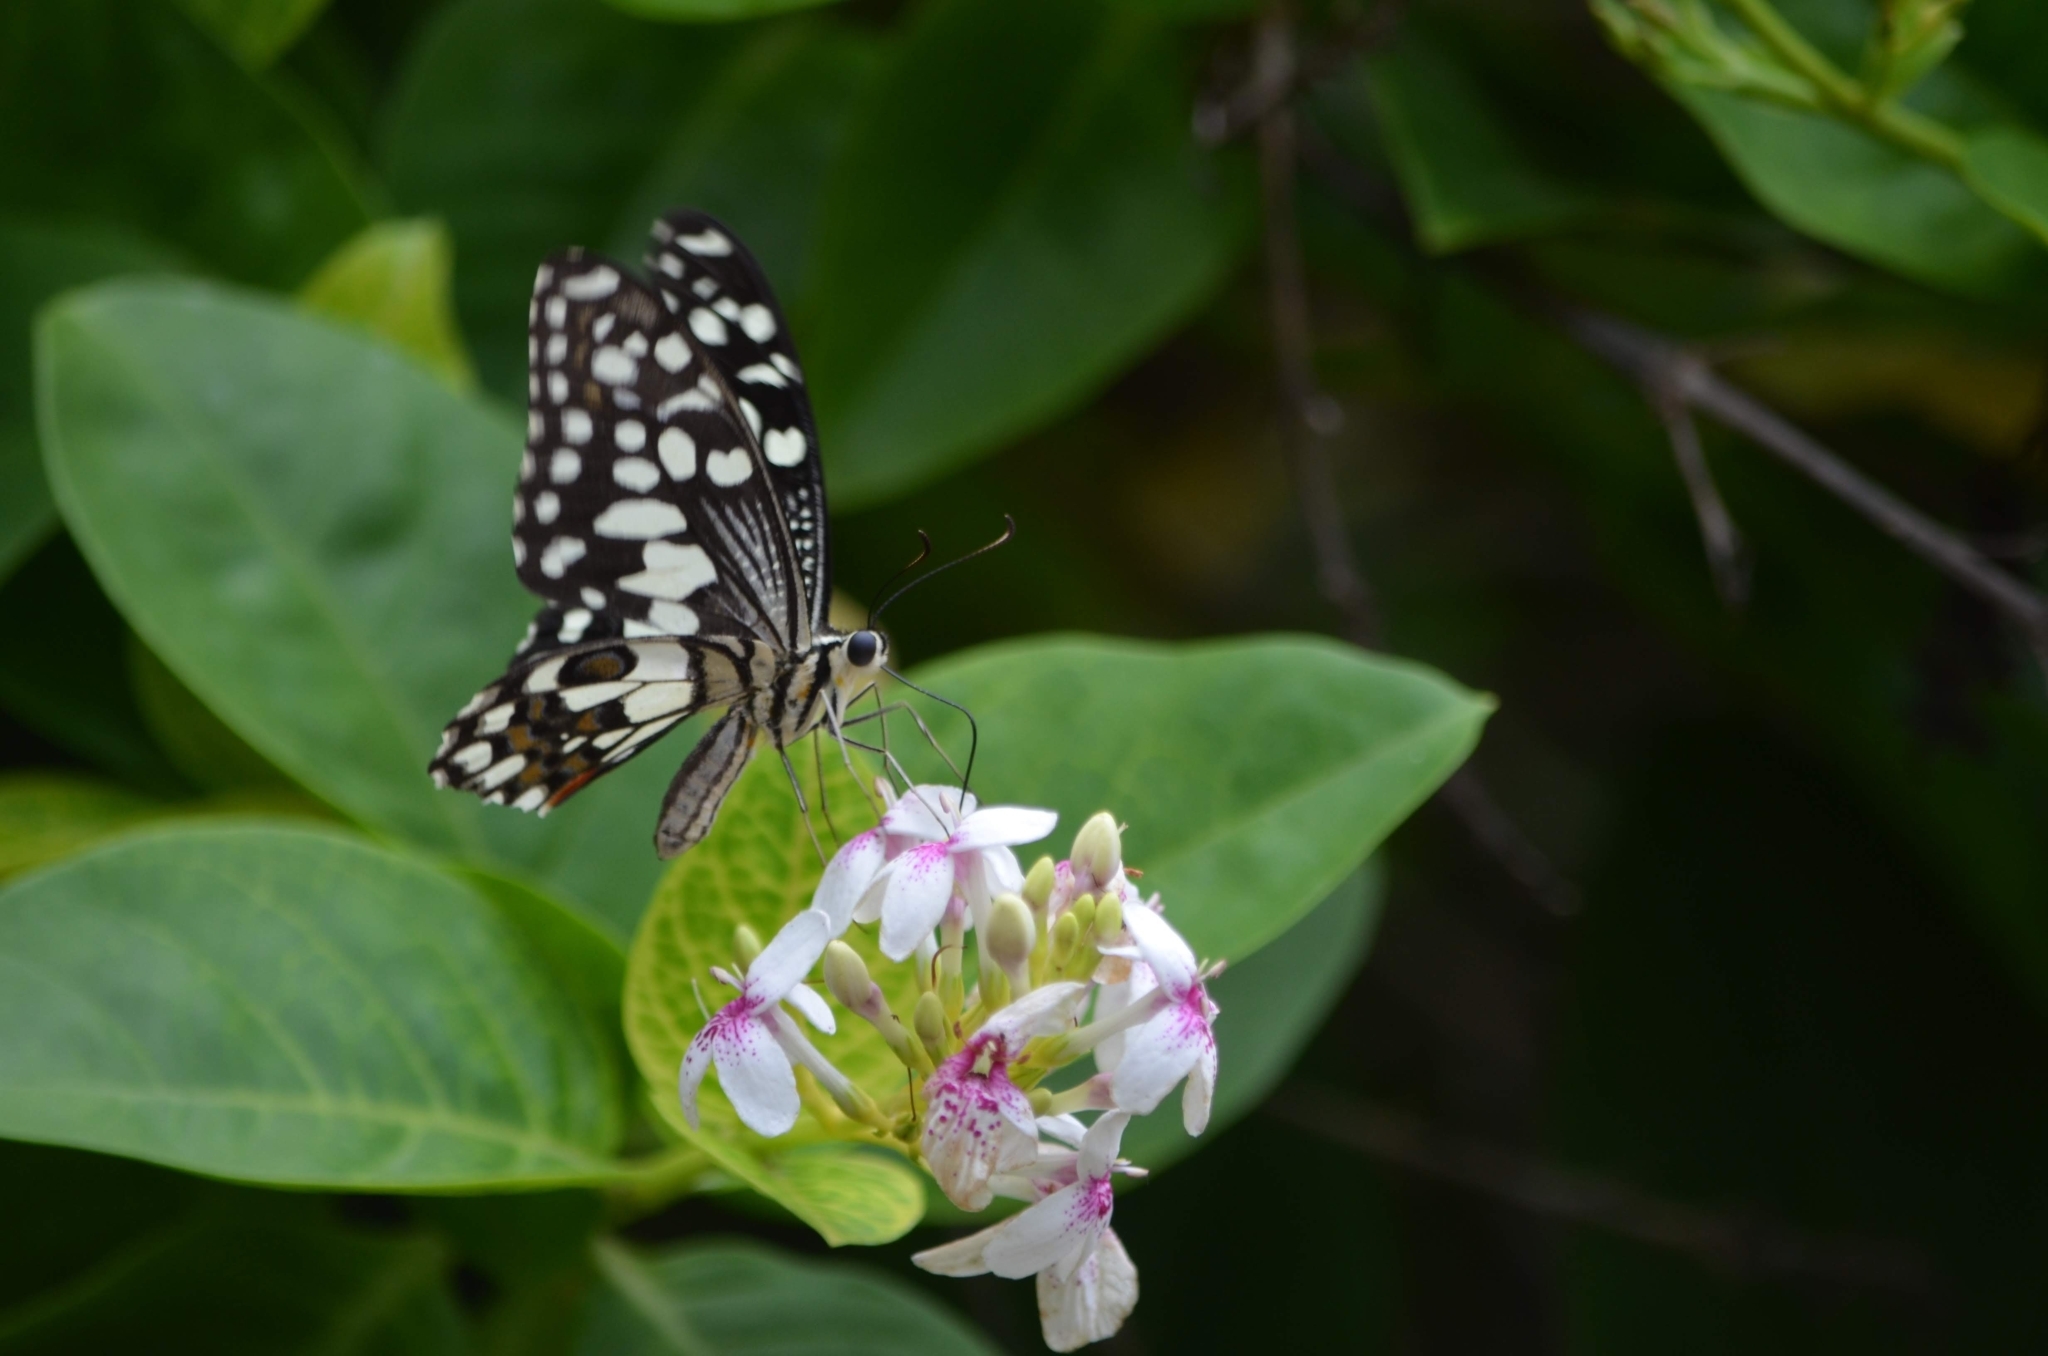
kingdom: Animalia
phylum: Arthropoda
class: Insecta
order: Lepidoptera
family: Papilionidae
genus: Papilio
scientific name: Papilio demoleus
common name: Lime butterfly
